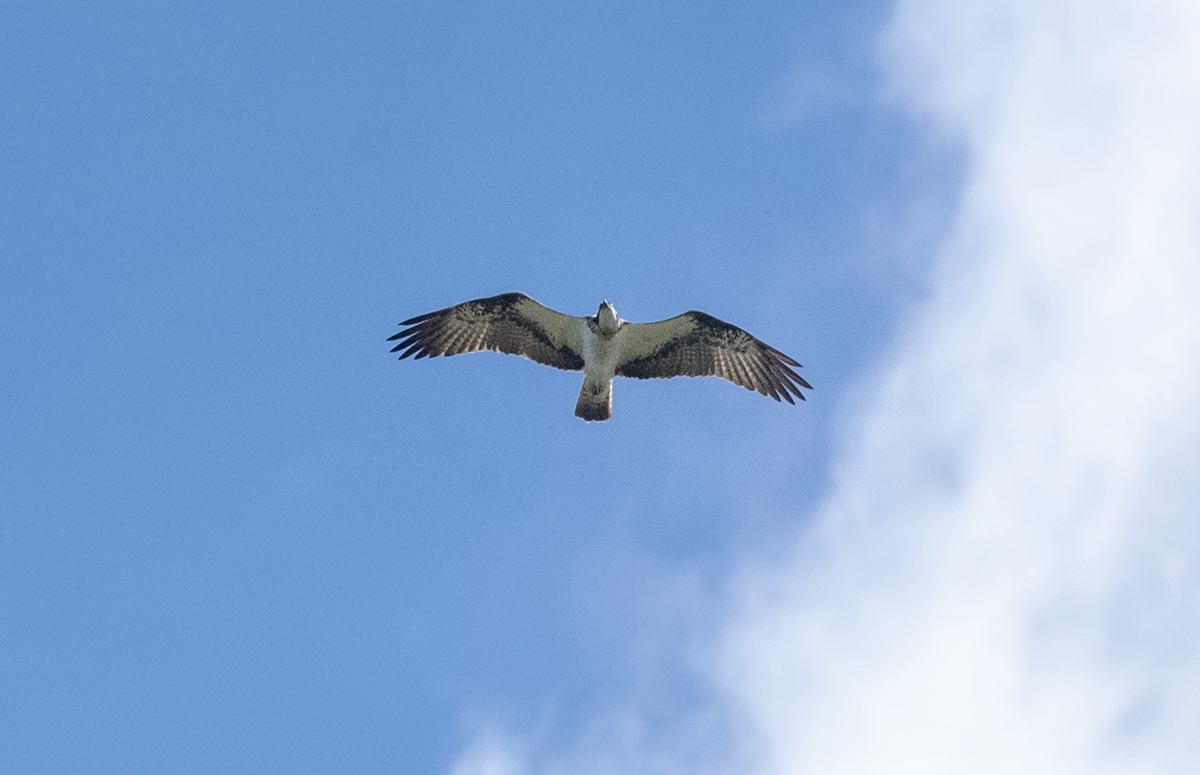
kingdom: Animalia
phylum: Chordata
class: Aves
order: Accipitriformes
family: Pandionidae
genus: Pandion
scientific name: Pandion haliaetus
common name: Osprey
